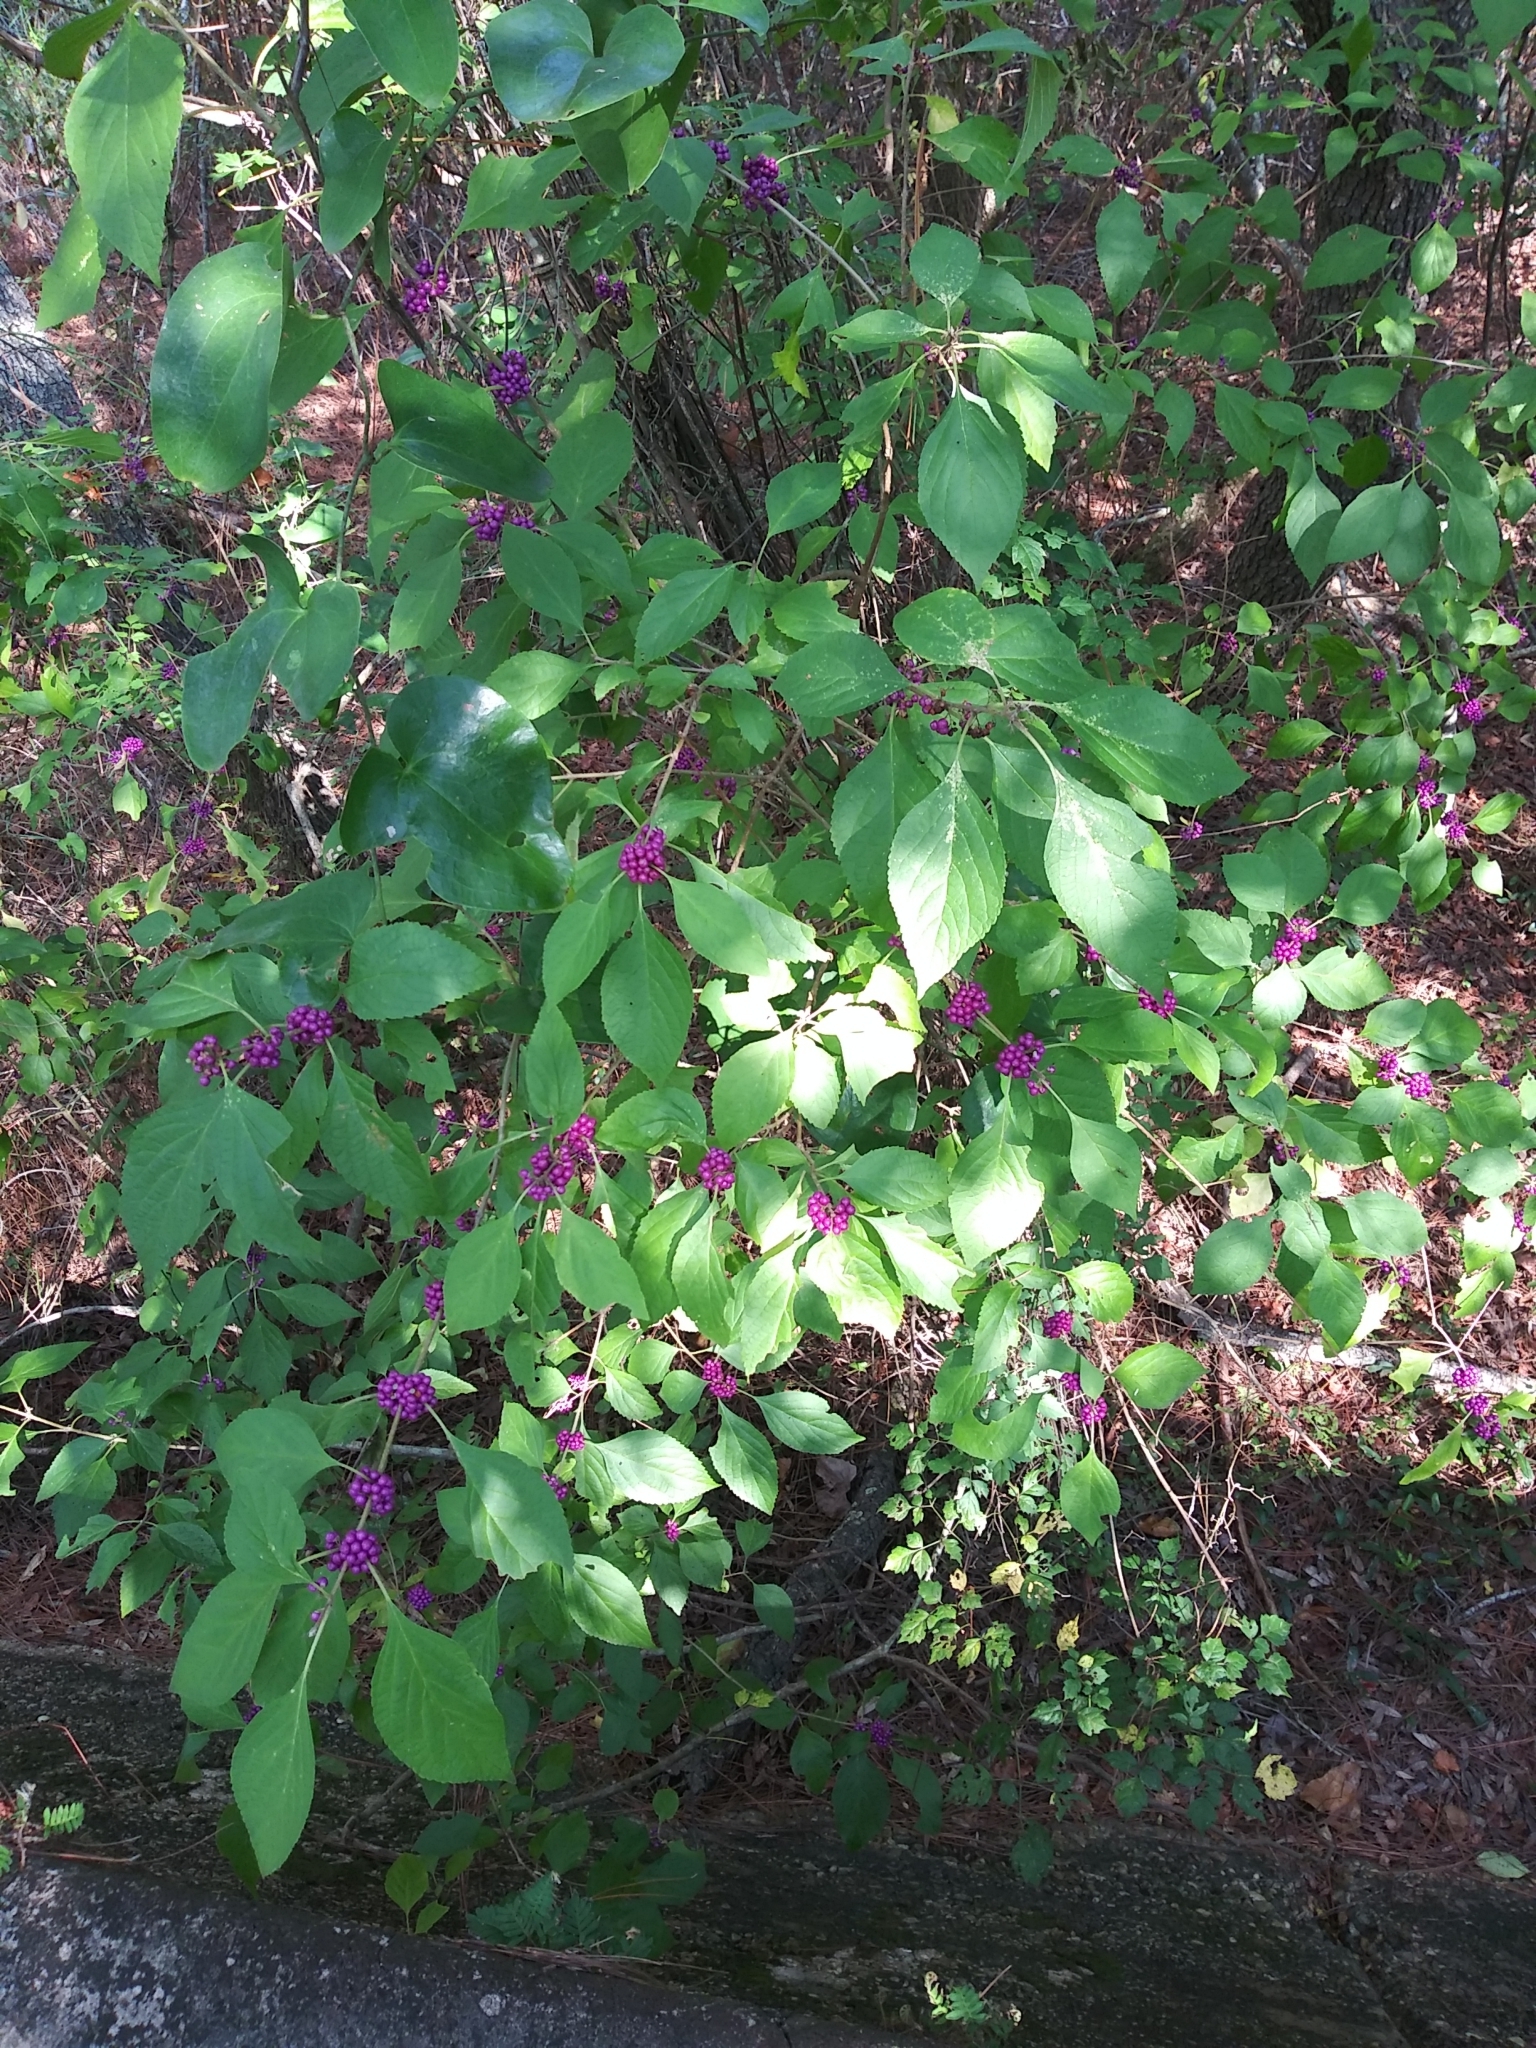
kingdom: Plantae
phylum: Tracheophyta
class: Magnoliopsida
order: Lamiales
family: Lamiaceae
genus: Callicarpa
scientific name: Callicarpa americana
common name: American beautyberry
